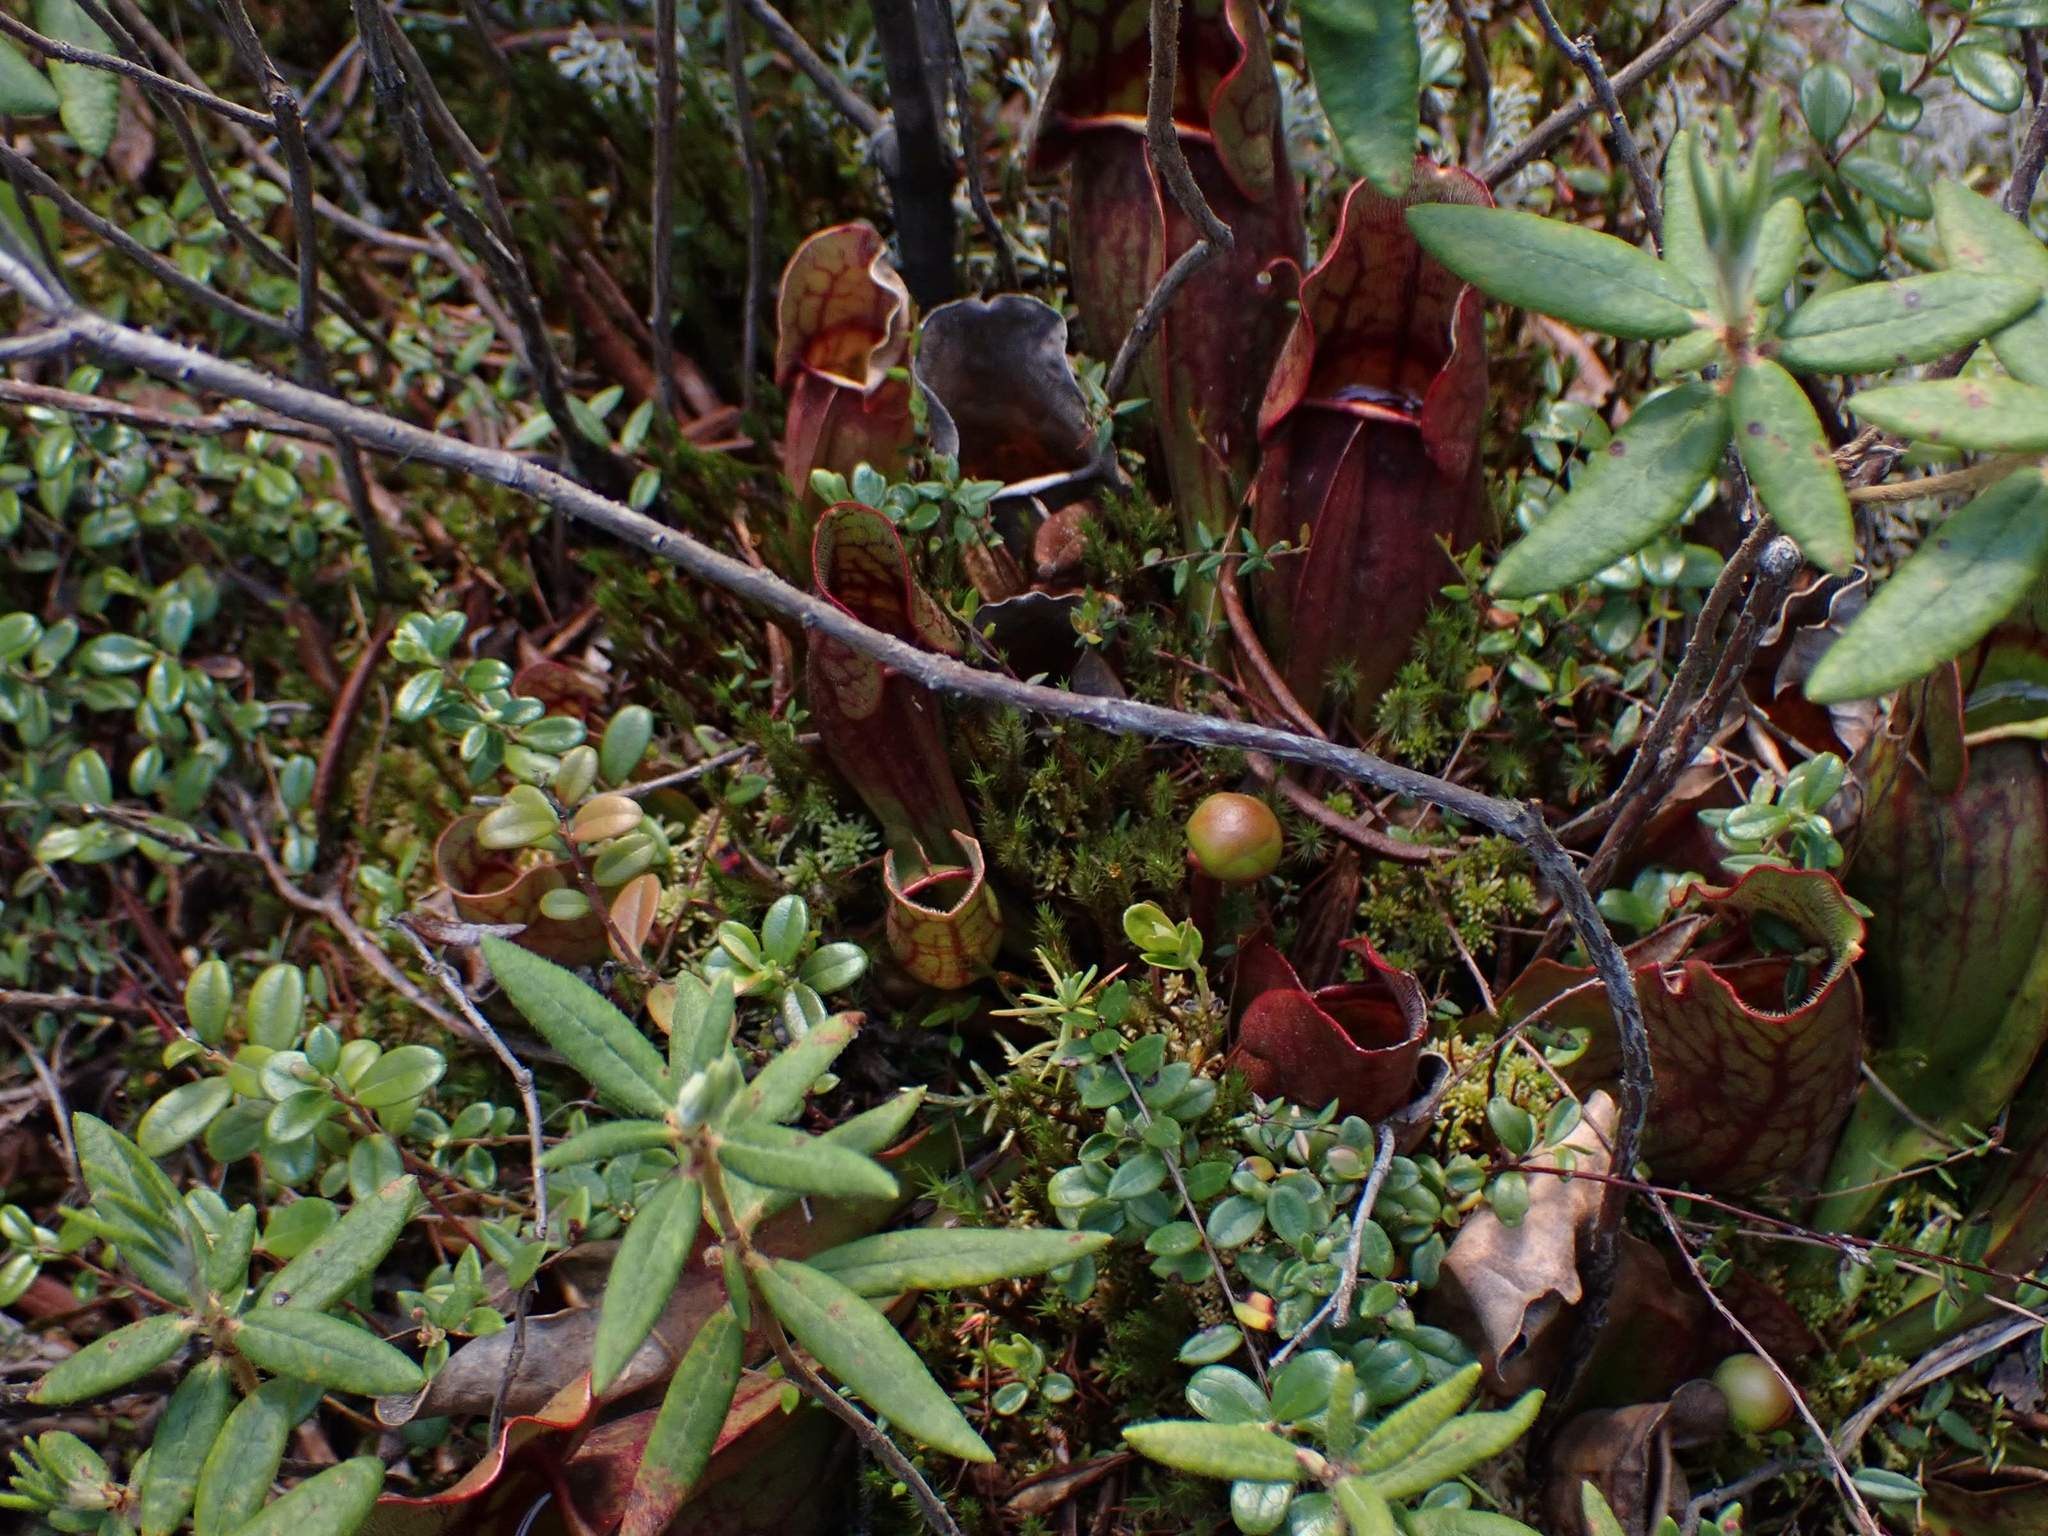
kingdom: Plantae
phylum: Tracheophyta
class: Magnoliopsida
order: Ericales
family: Sarraceniaceae
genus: Sarracenia
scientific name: Sarracenia purpurea
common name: Pitcherplant
